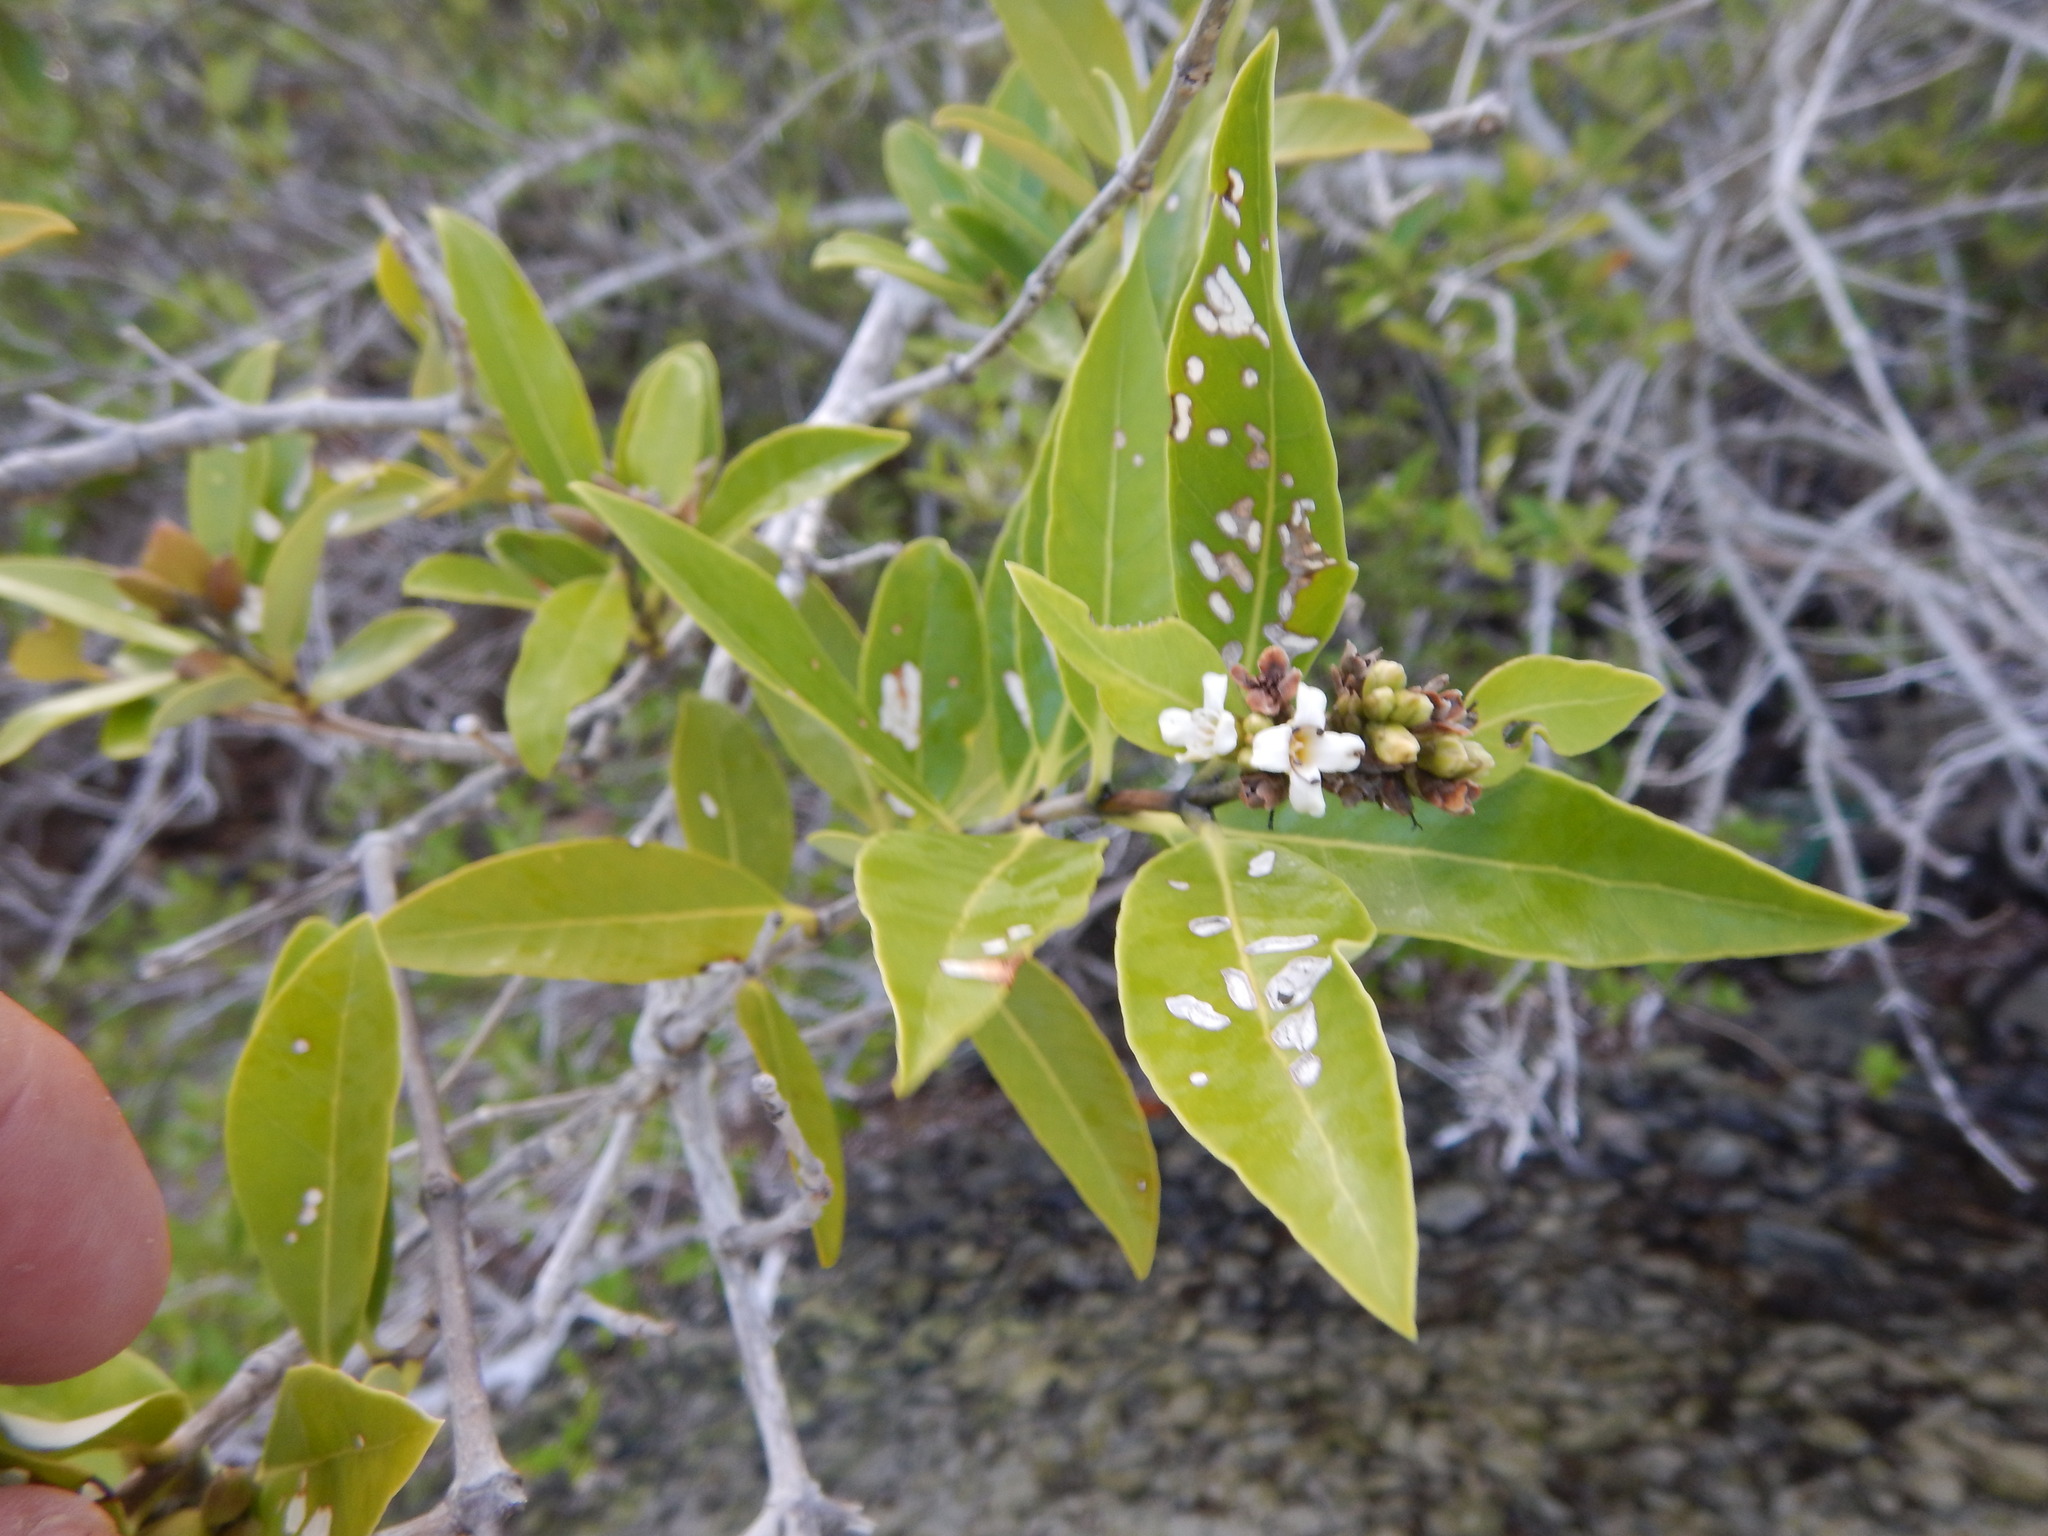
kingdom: Plantae
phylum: Tracheophyta
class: Magnoliopsida
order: Lamiales
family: Acanthaceae
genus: Avicennia
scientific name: Avicennia germinans
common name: Black mangrove
